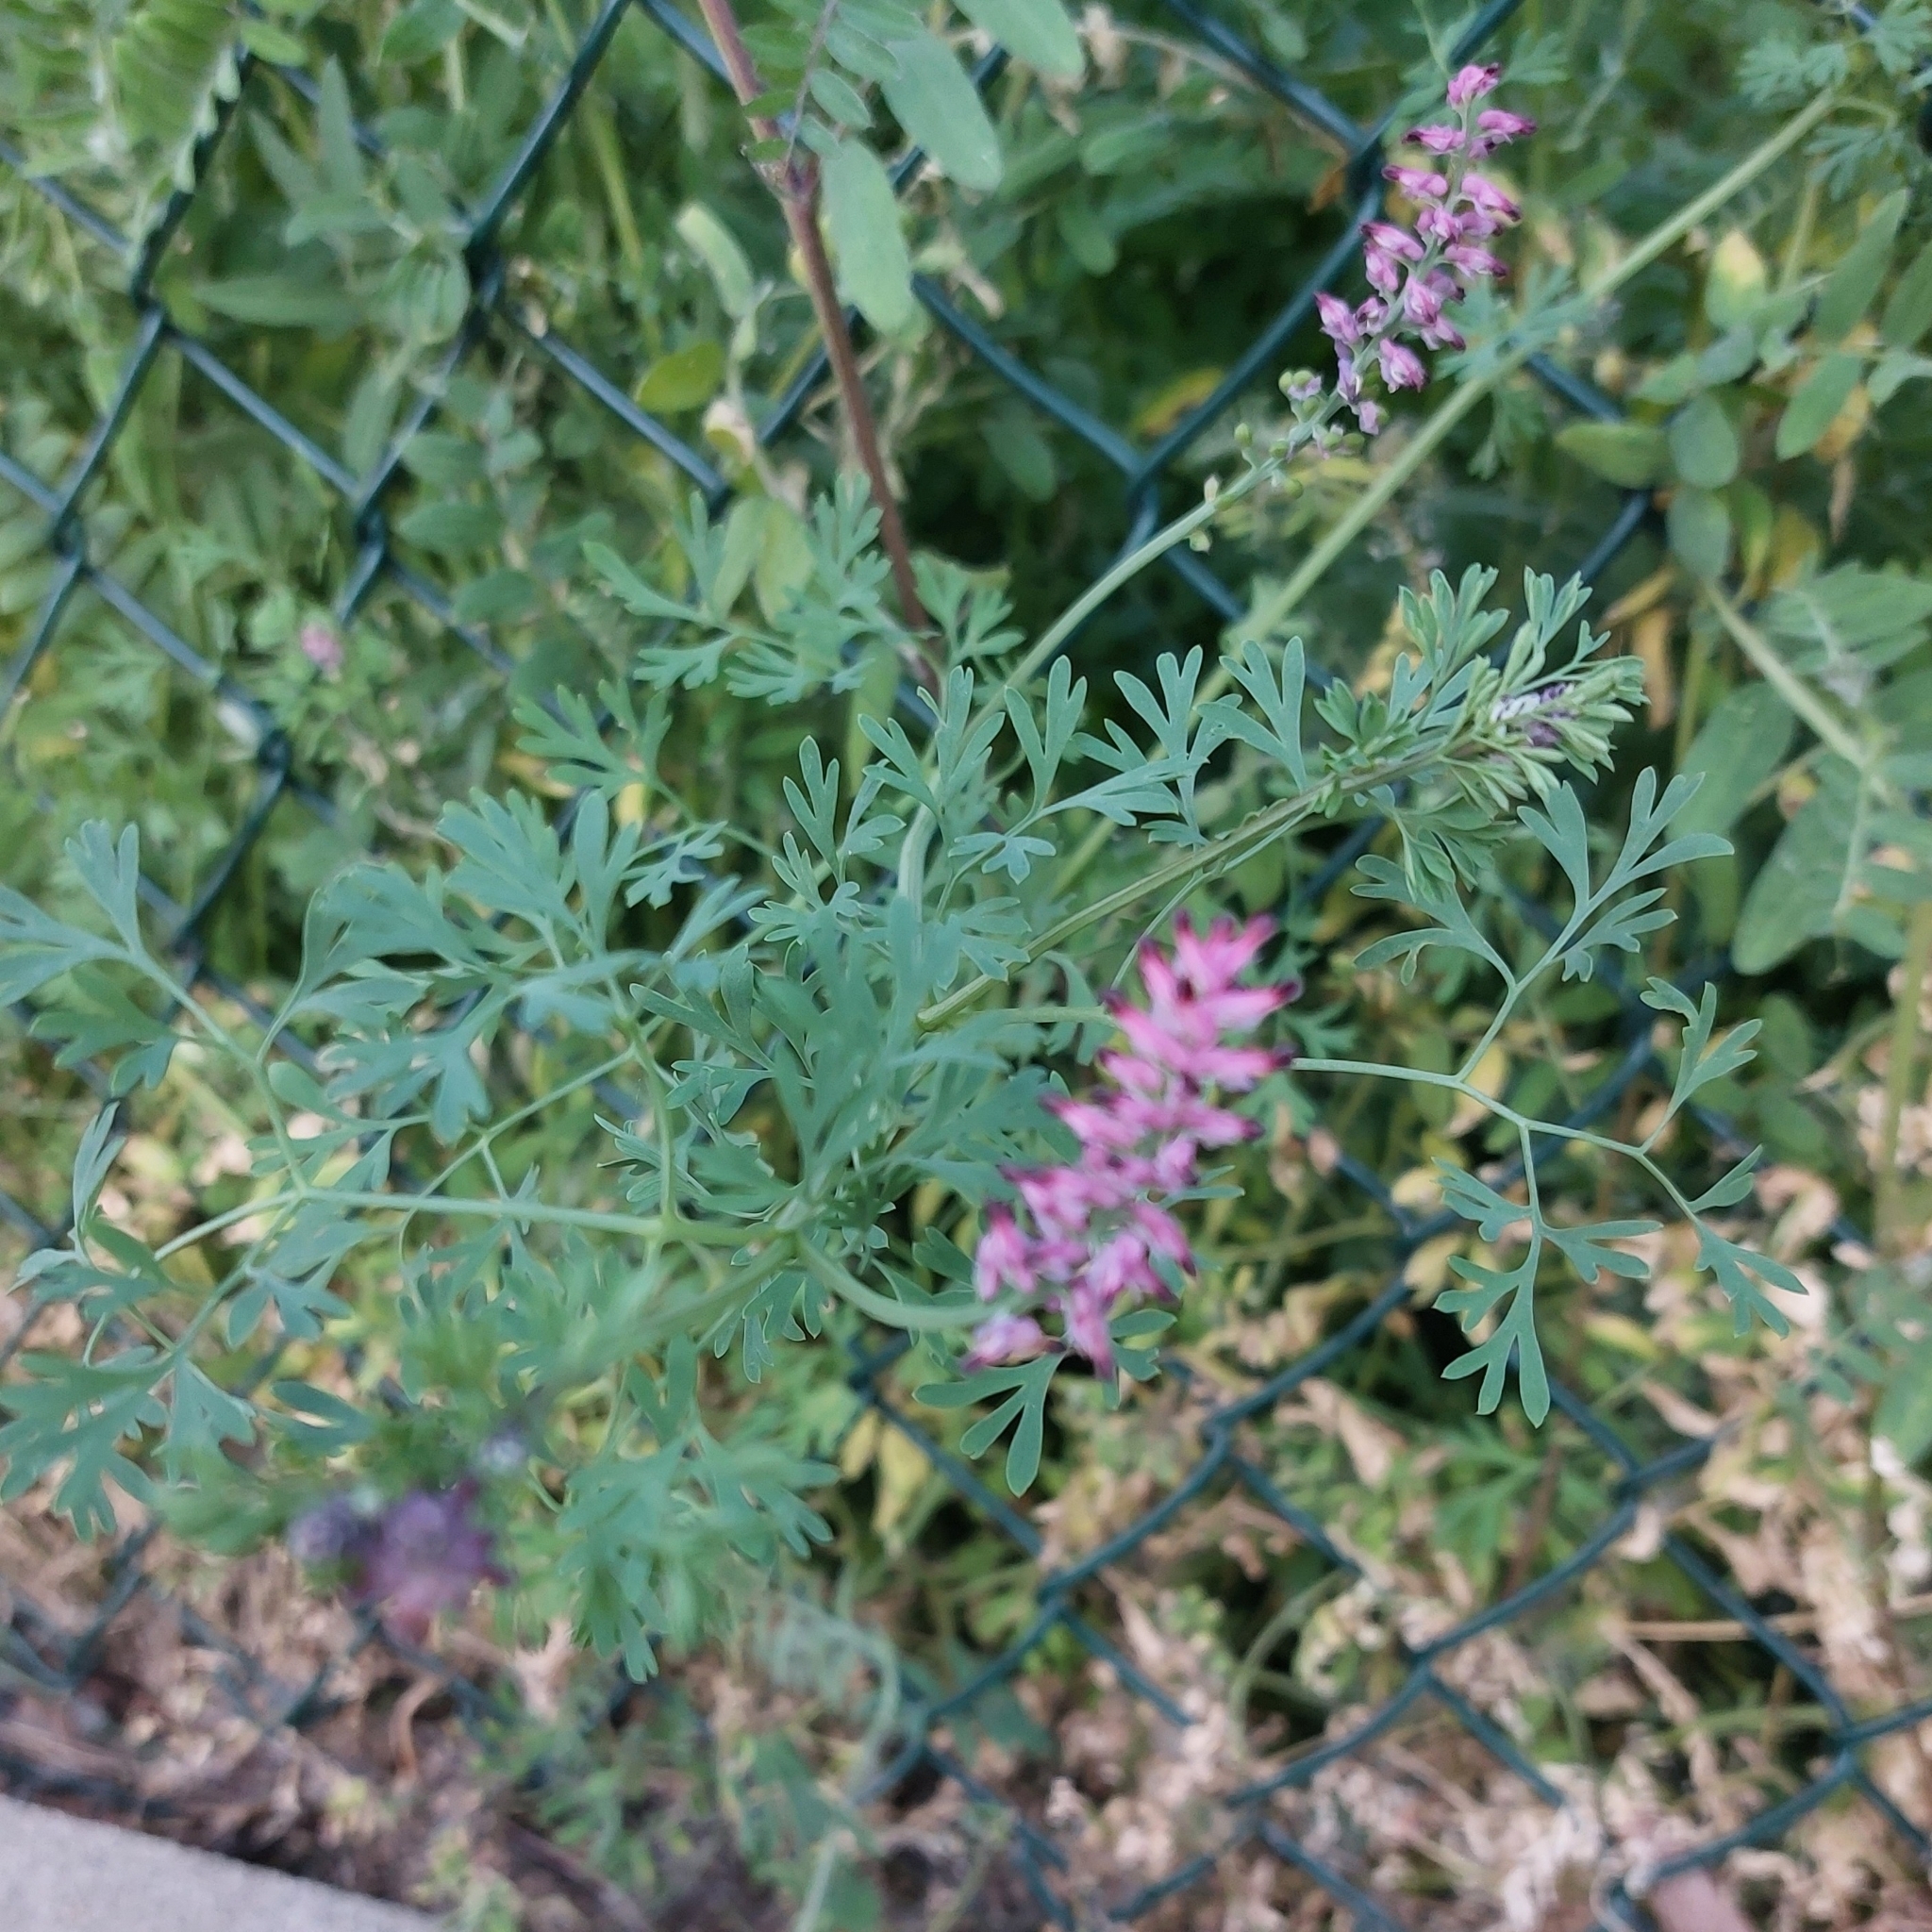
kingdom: Plantae
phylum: Tracheophyta
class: Magnoliopsida
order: Ranunculales
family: Papaveraceae
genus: Fumaria
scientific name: Fumaria officinalis
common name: Common fumitory
